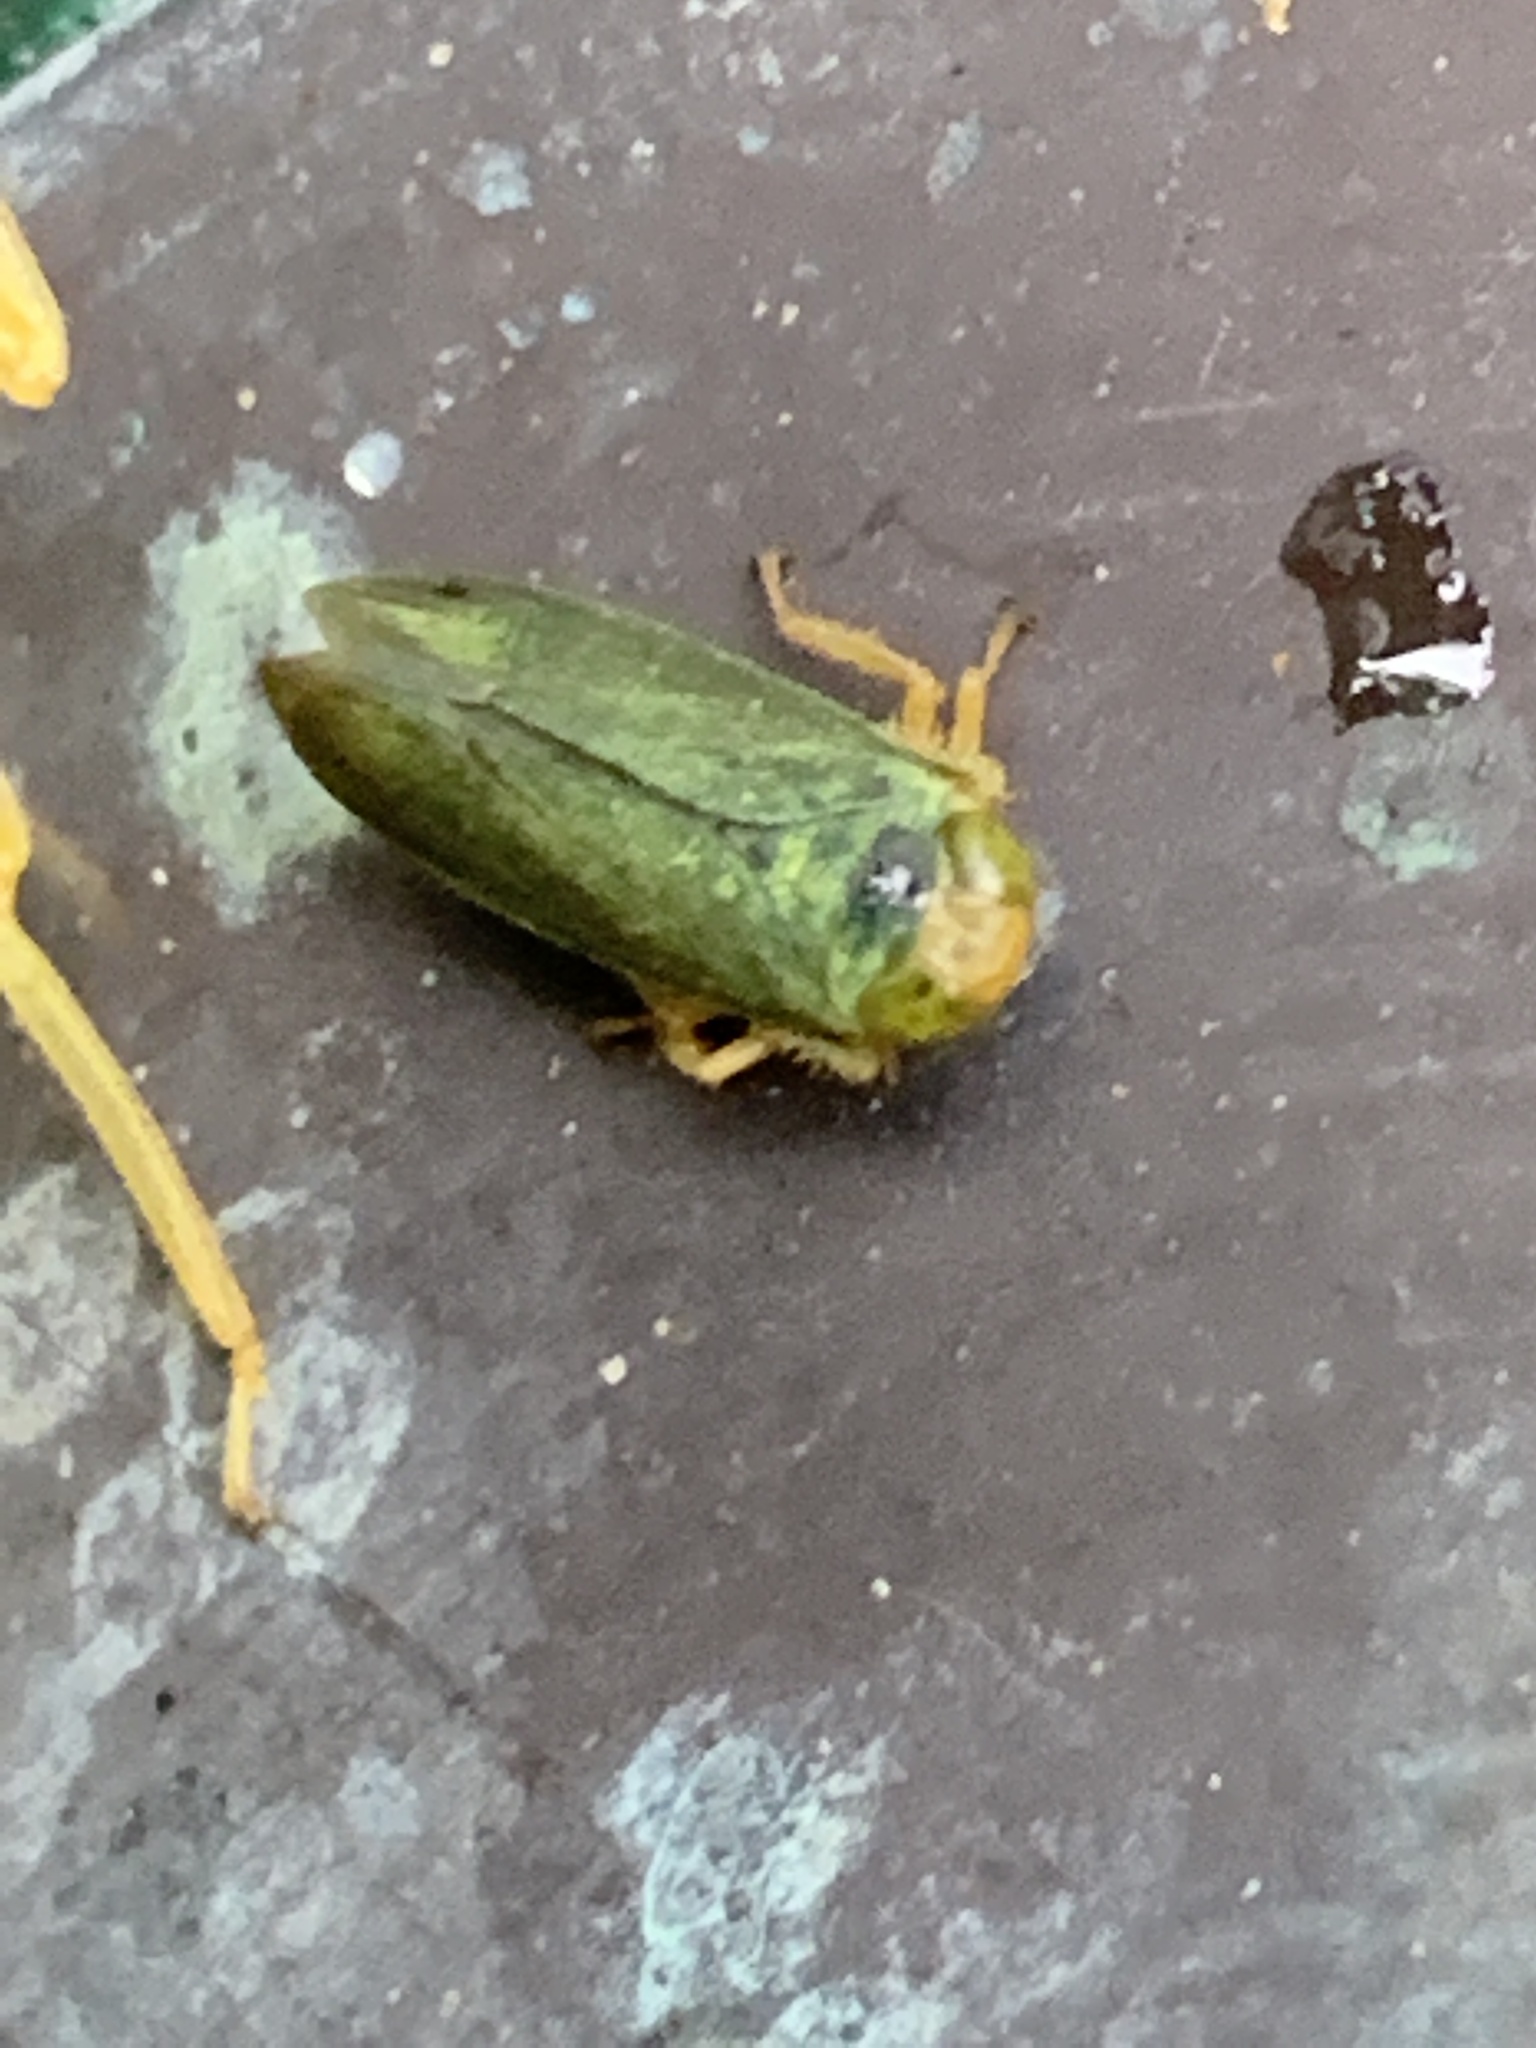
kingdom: Animalia
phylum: Arthropoda
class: Insecta
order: Hemiptera
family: Cicadellidae
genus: Jikradia
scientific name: Jikradia olitoria
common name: Coppery leafhopper
